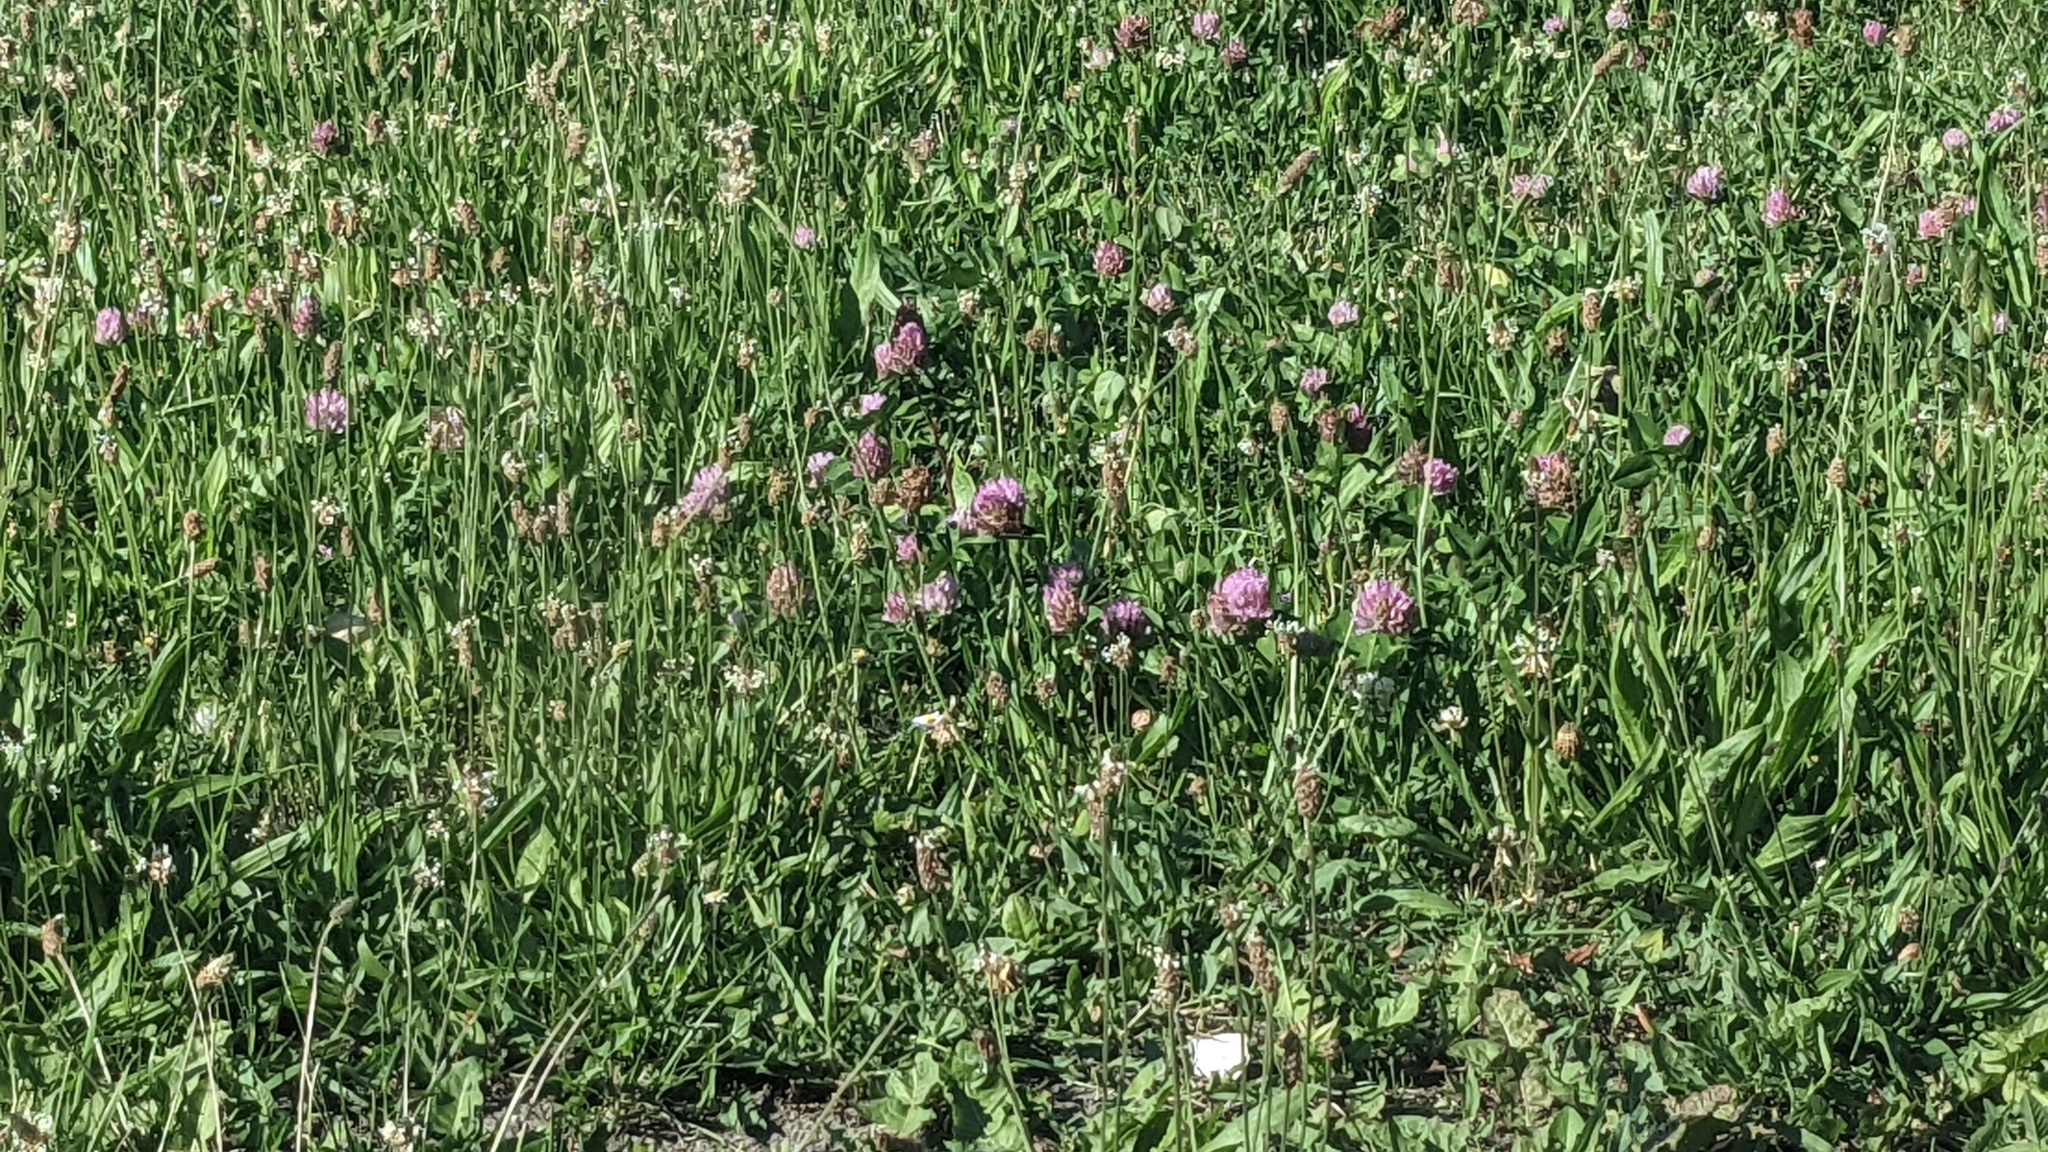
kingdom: Plantae
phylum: Tracheophyta
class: Magnoliopsida
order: Fabales
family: Fabaceae
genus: Trifolium
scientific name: Trifolium pratense
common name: Red clover
